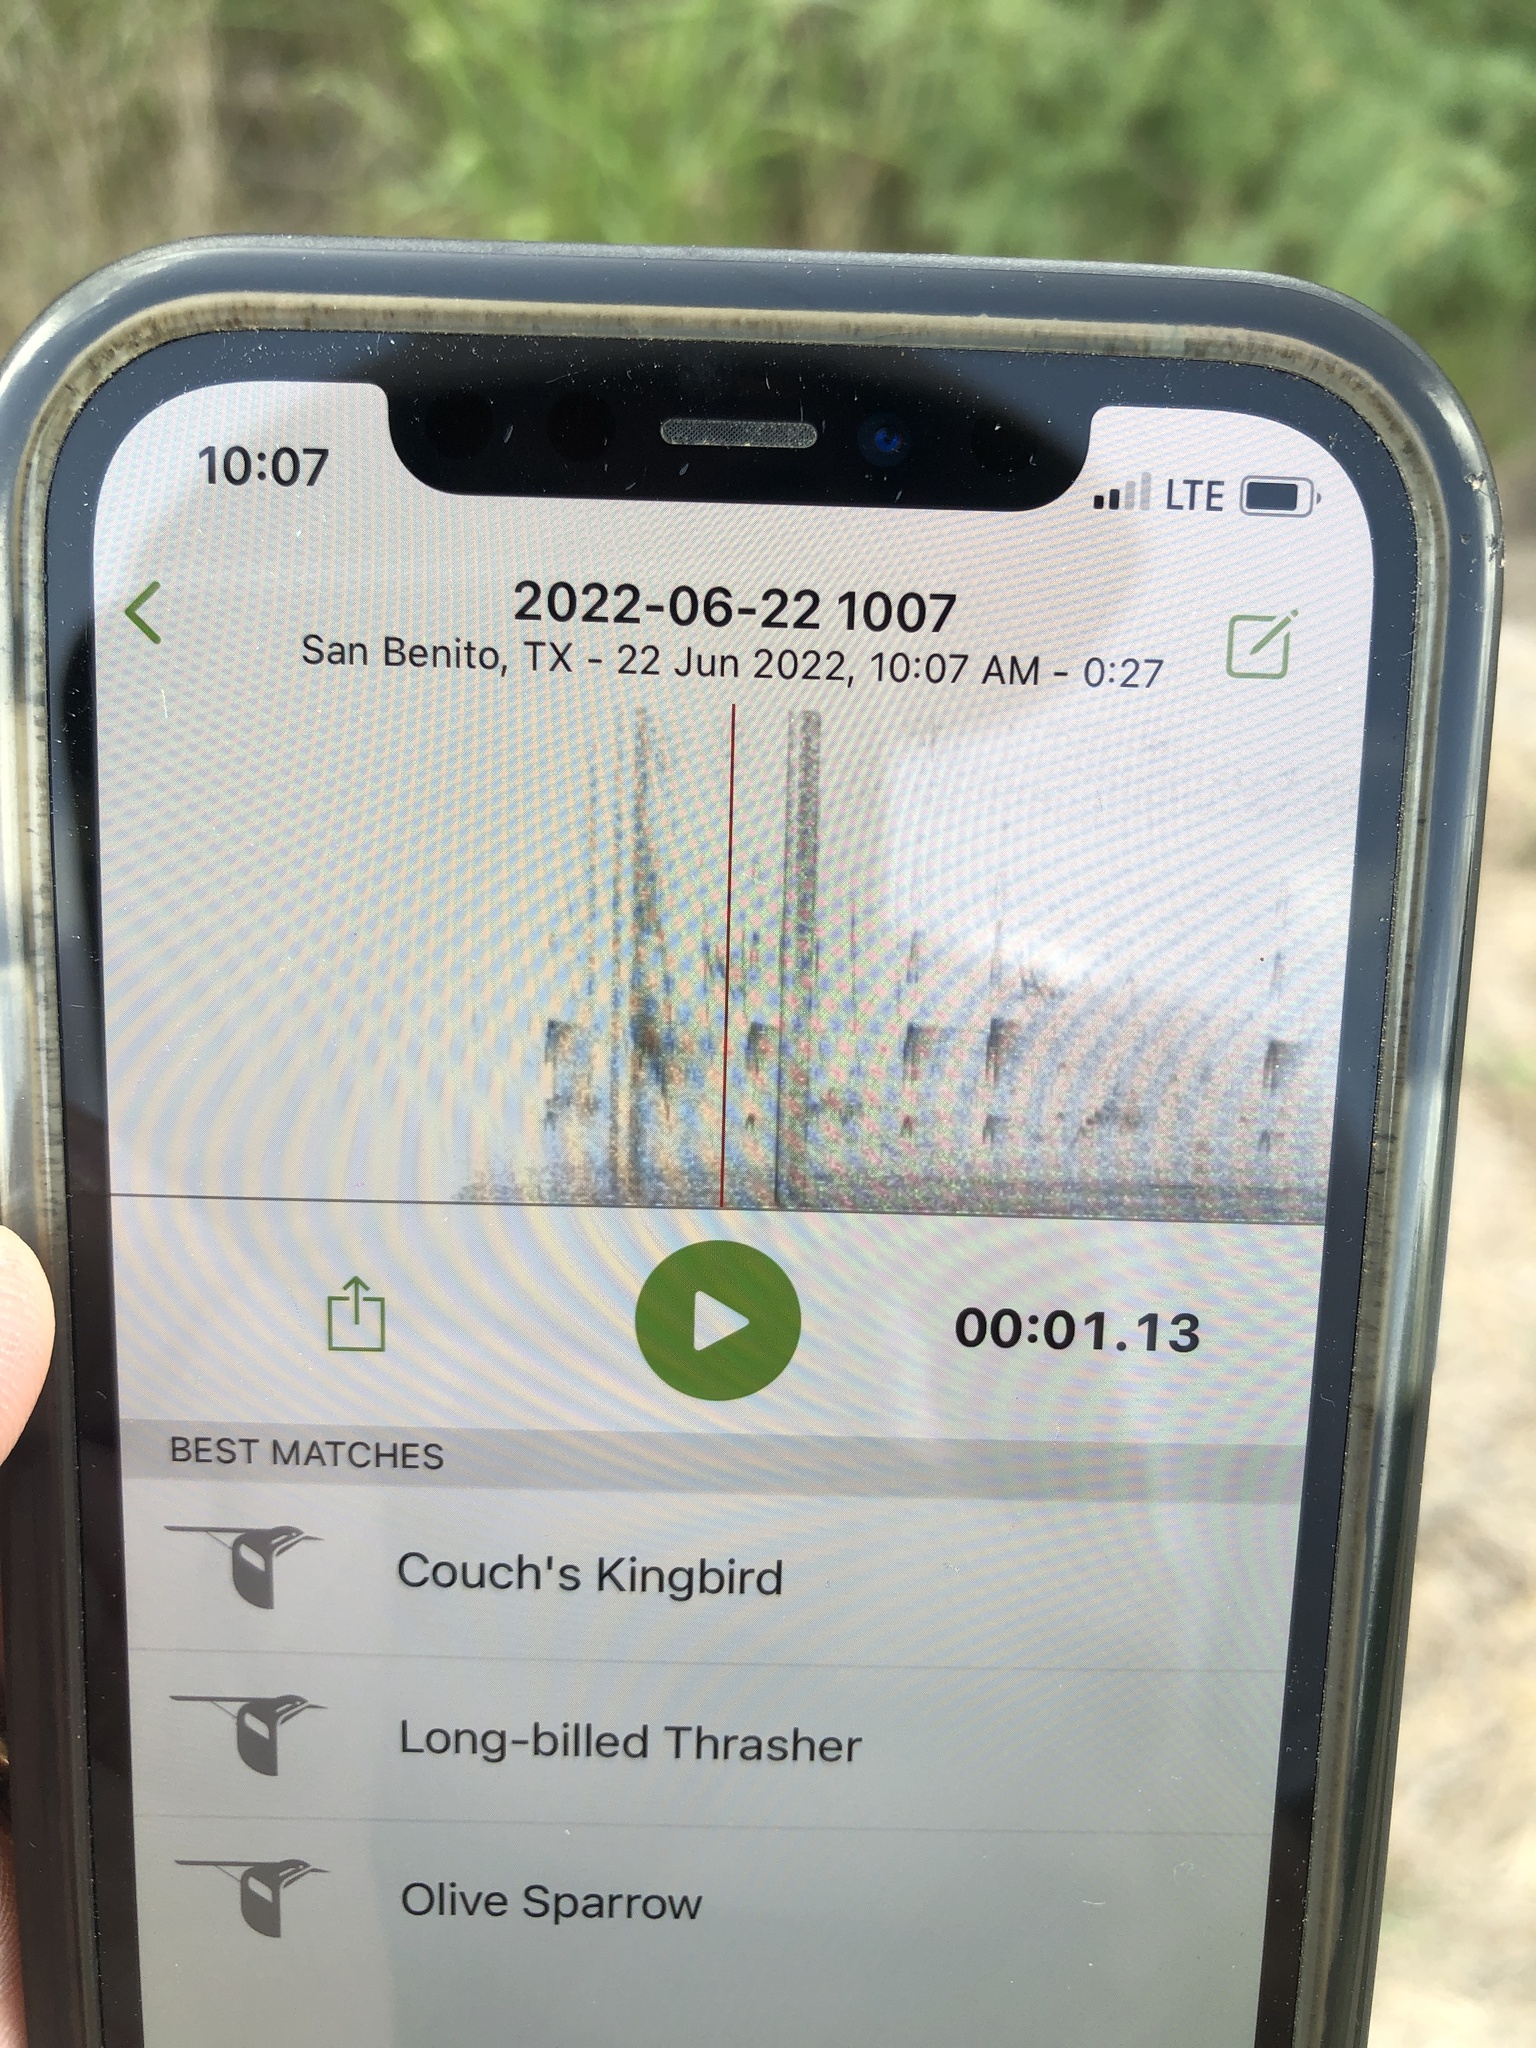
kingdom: Animalia
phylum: Chordata
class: Aves
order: Passeriformes
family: Tyrannidae
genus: Tyrannus
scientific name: Tyrannus couchii
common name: Couch's kingbird
